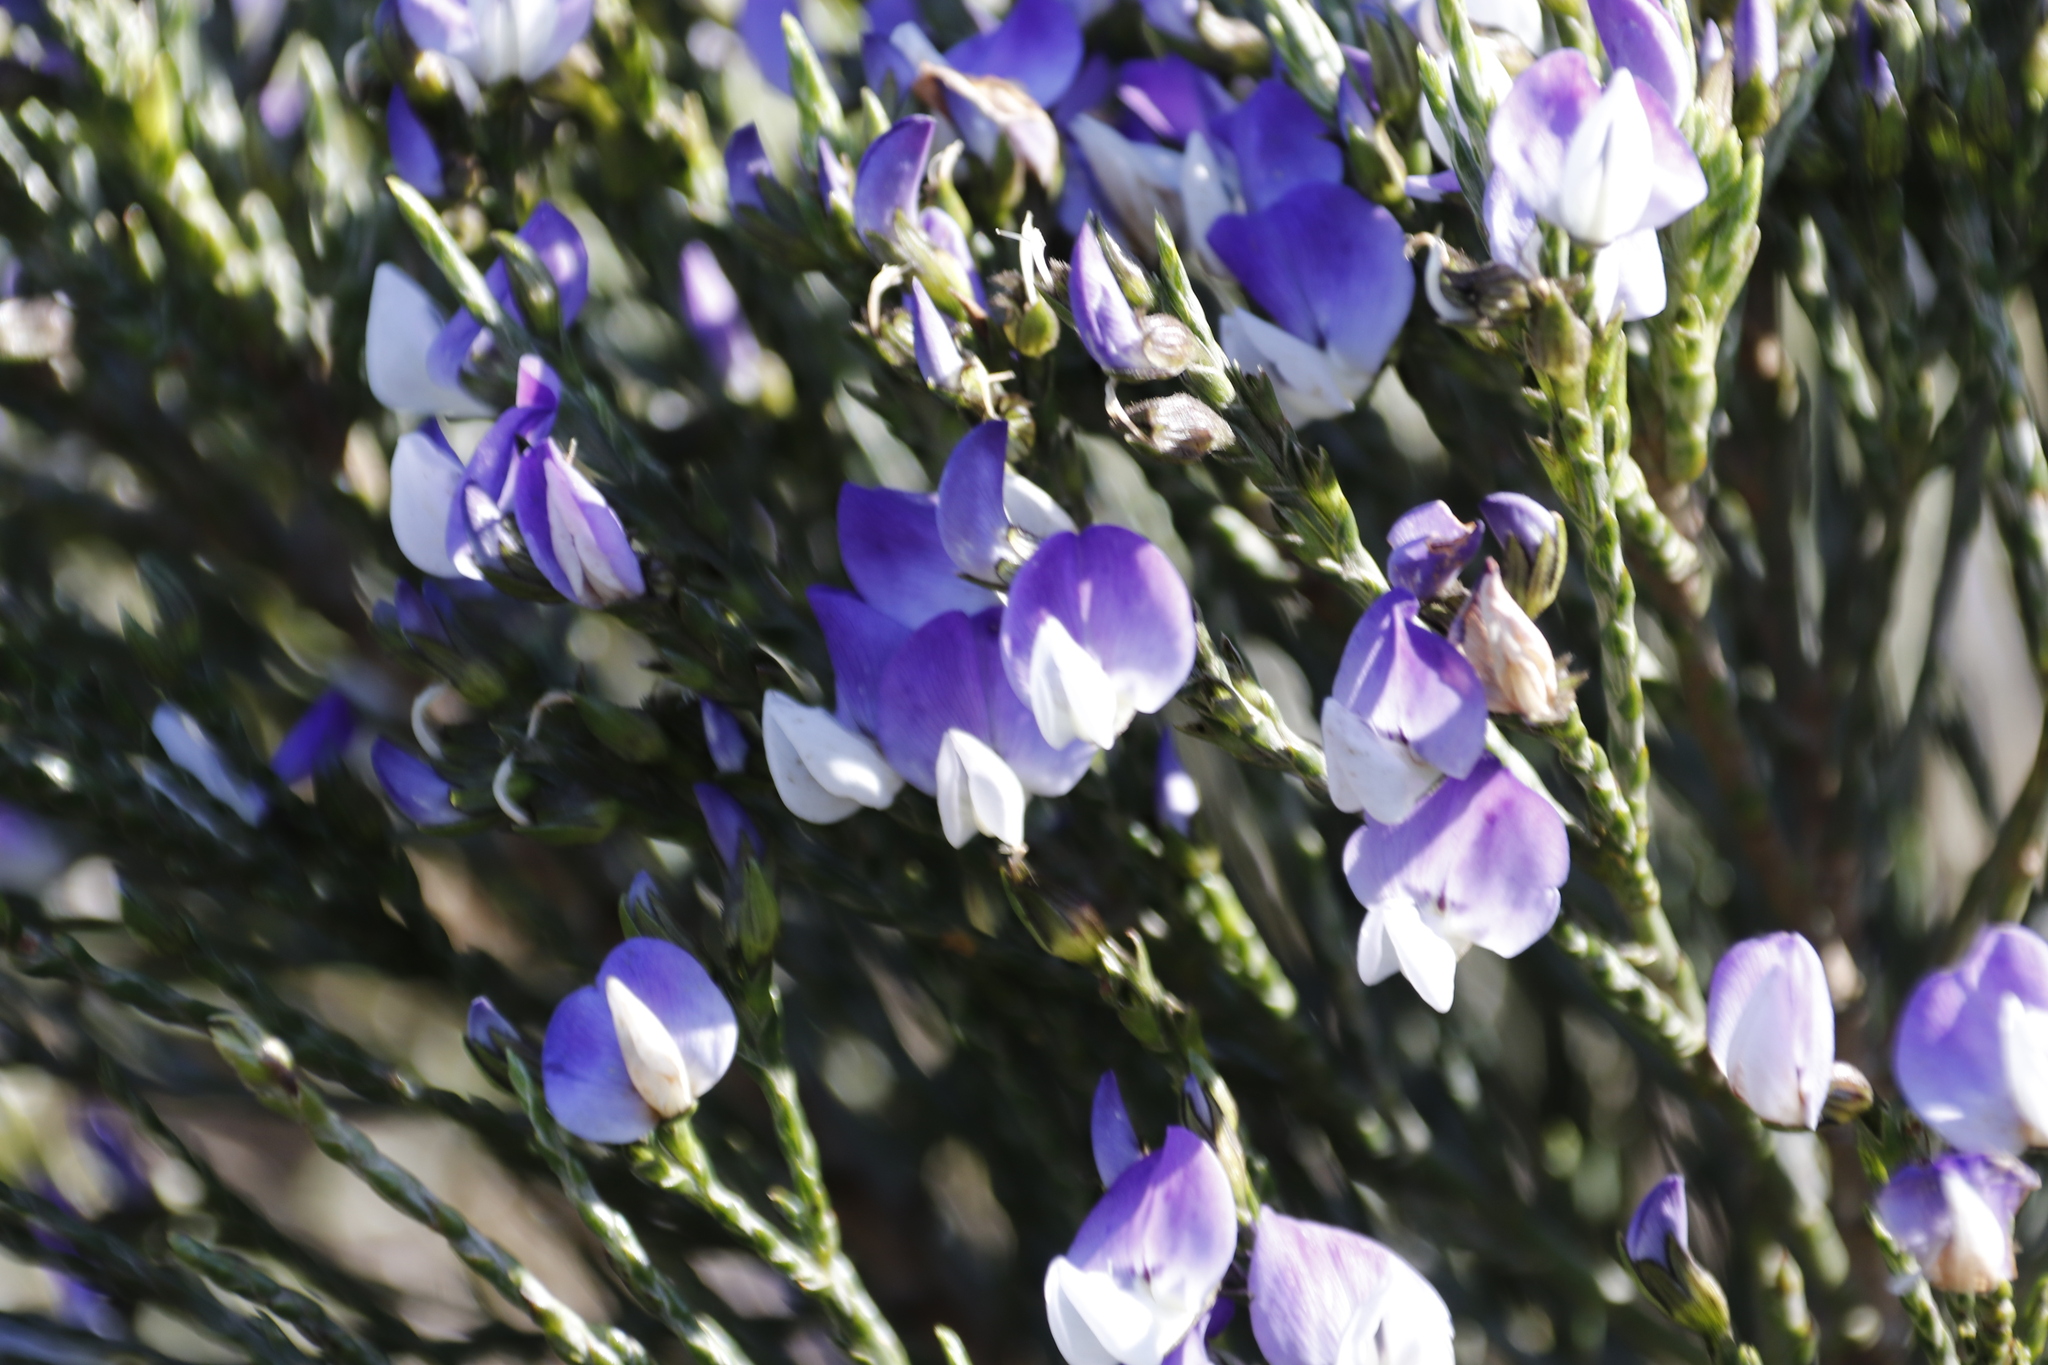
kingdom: Plantae
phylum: Tracheophyta
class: Magnoliopsida
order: Fabales
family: Fabaceae
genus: Psoralea
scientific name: Psoralea congesta
